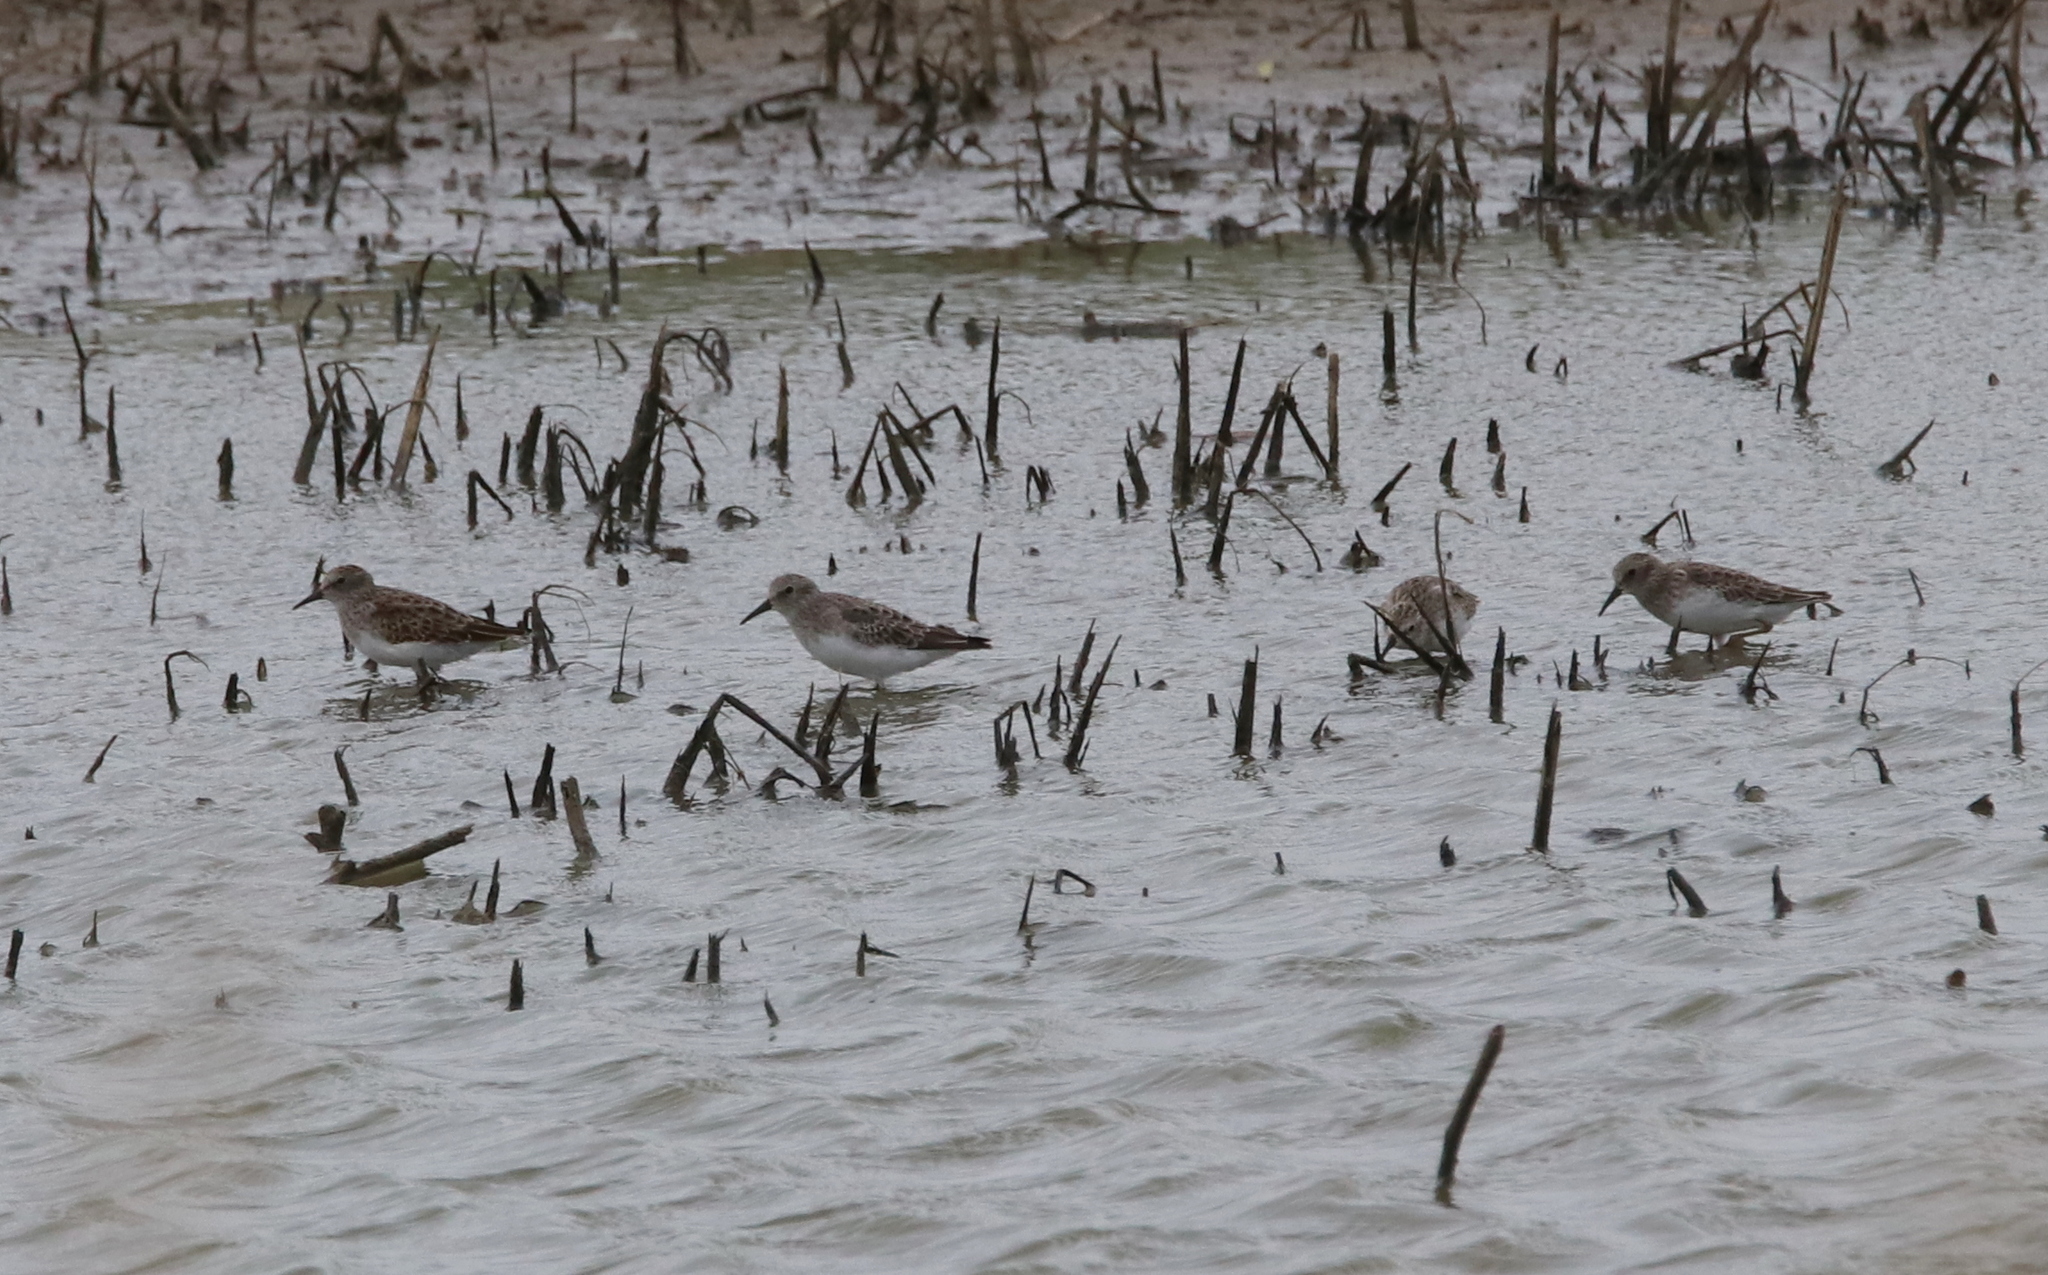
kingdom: Animalia
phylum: Chordata
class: Aves
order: Charadriiformes
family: Scolopacidae
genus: Calidris
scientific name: Calidris minutilla
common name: Least sandpiper
